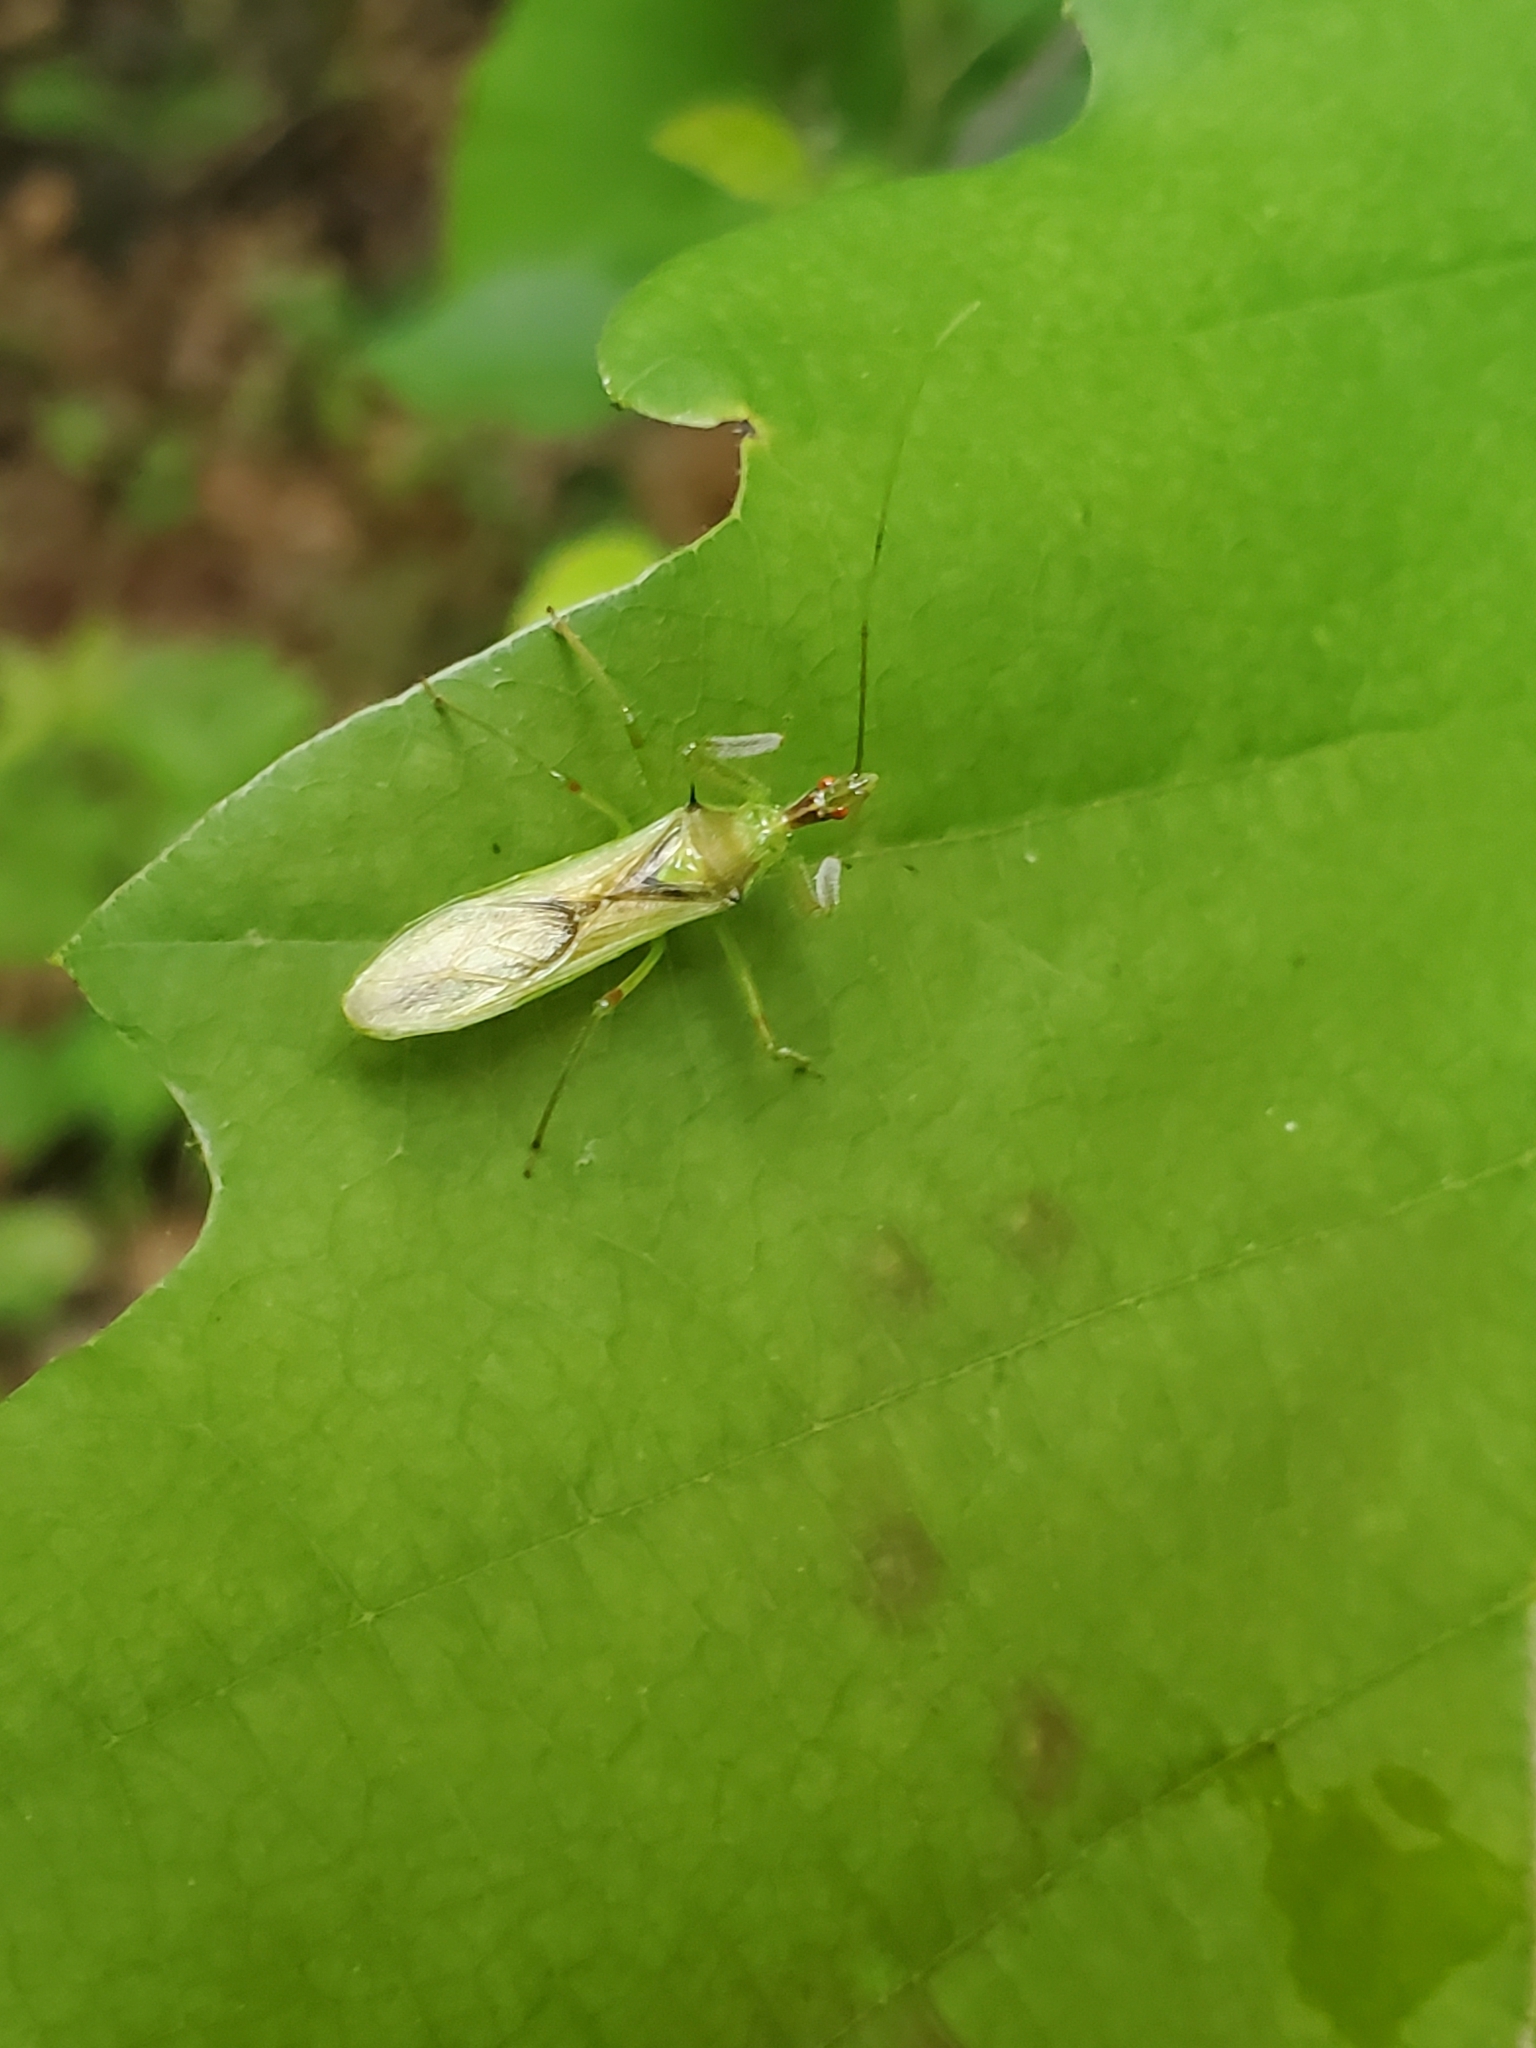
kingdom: Animalia
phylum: Arthropoda
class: Insecta
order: Hemiptera
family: Reduviidae
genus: Zelus
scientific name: Zelus luridus
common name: Pale green assassin bug
